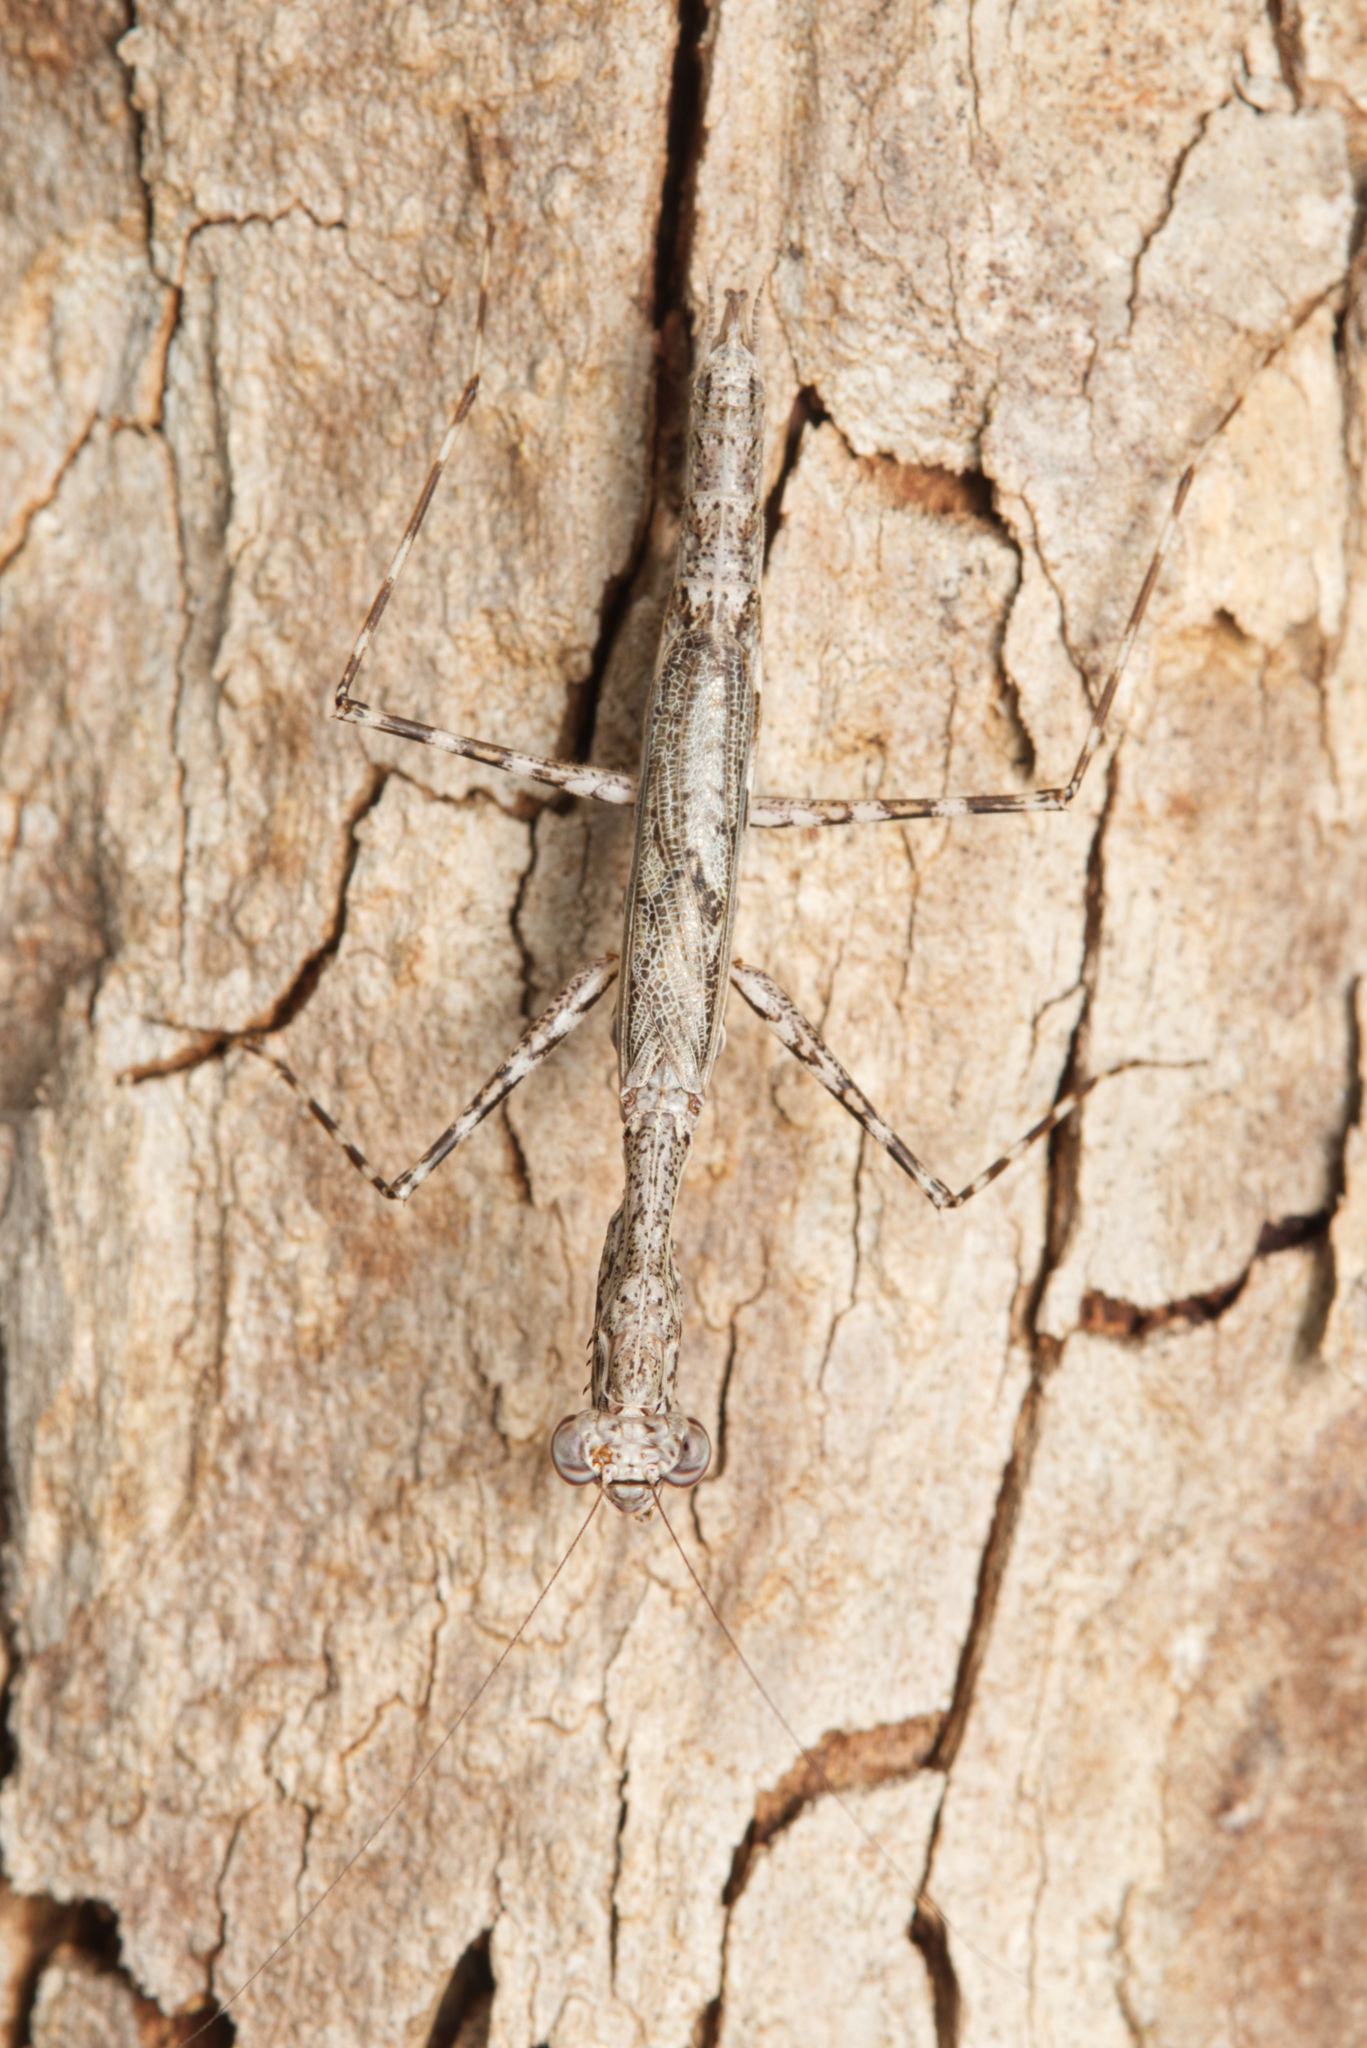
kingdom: Animalia
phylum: Arthropoda
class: Insecta
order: Mantodea
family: Nanomantidae
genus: Ciulfina
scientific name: Ciulfina baldersoni
